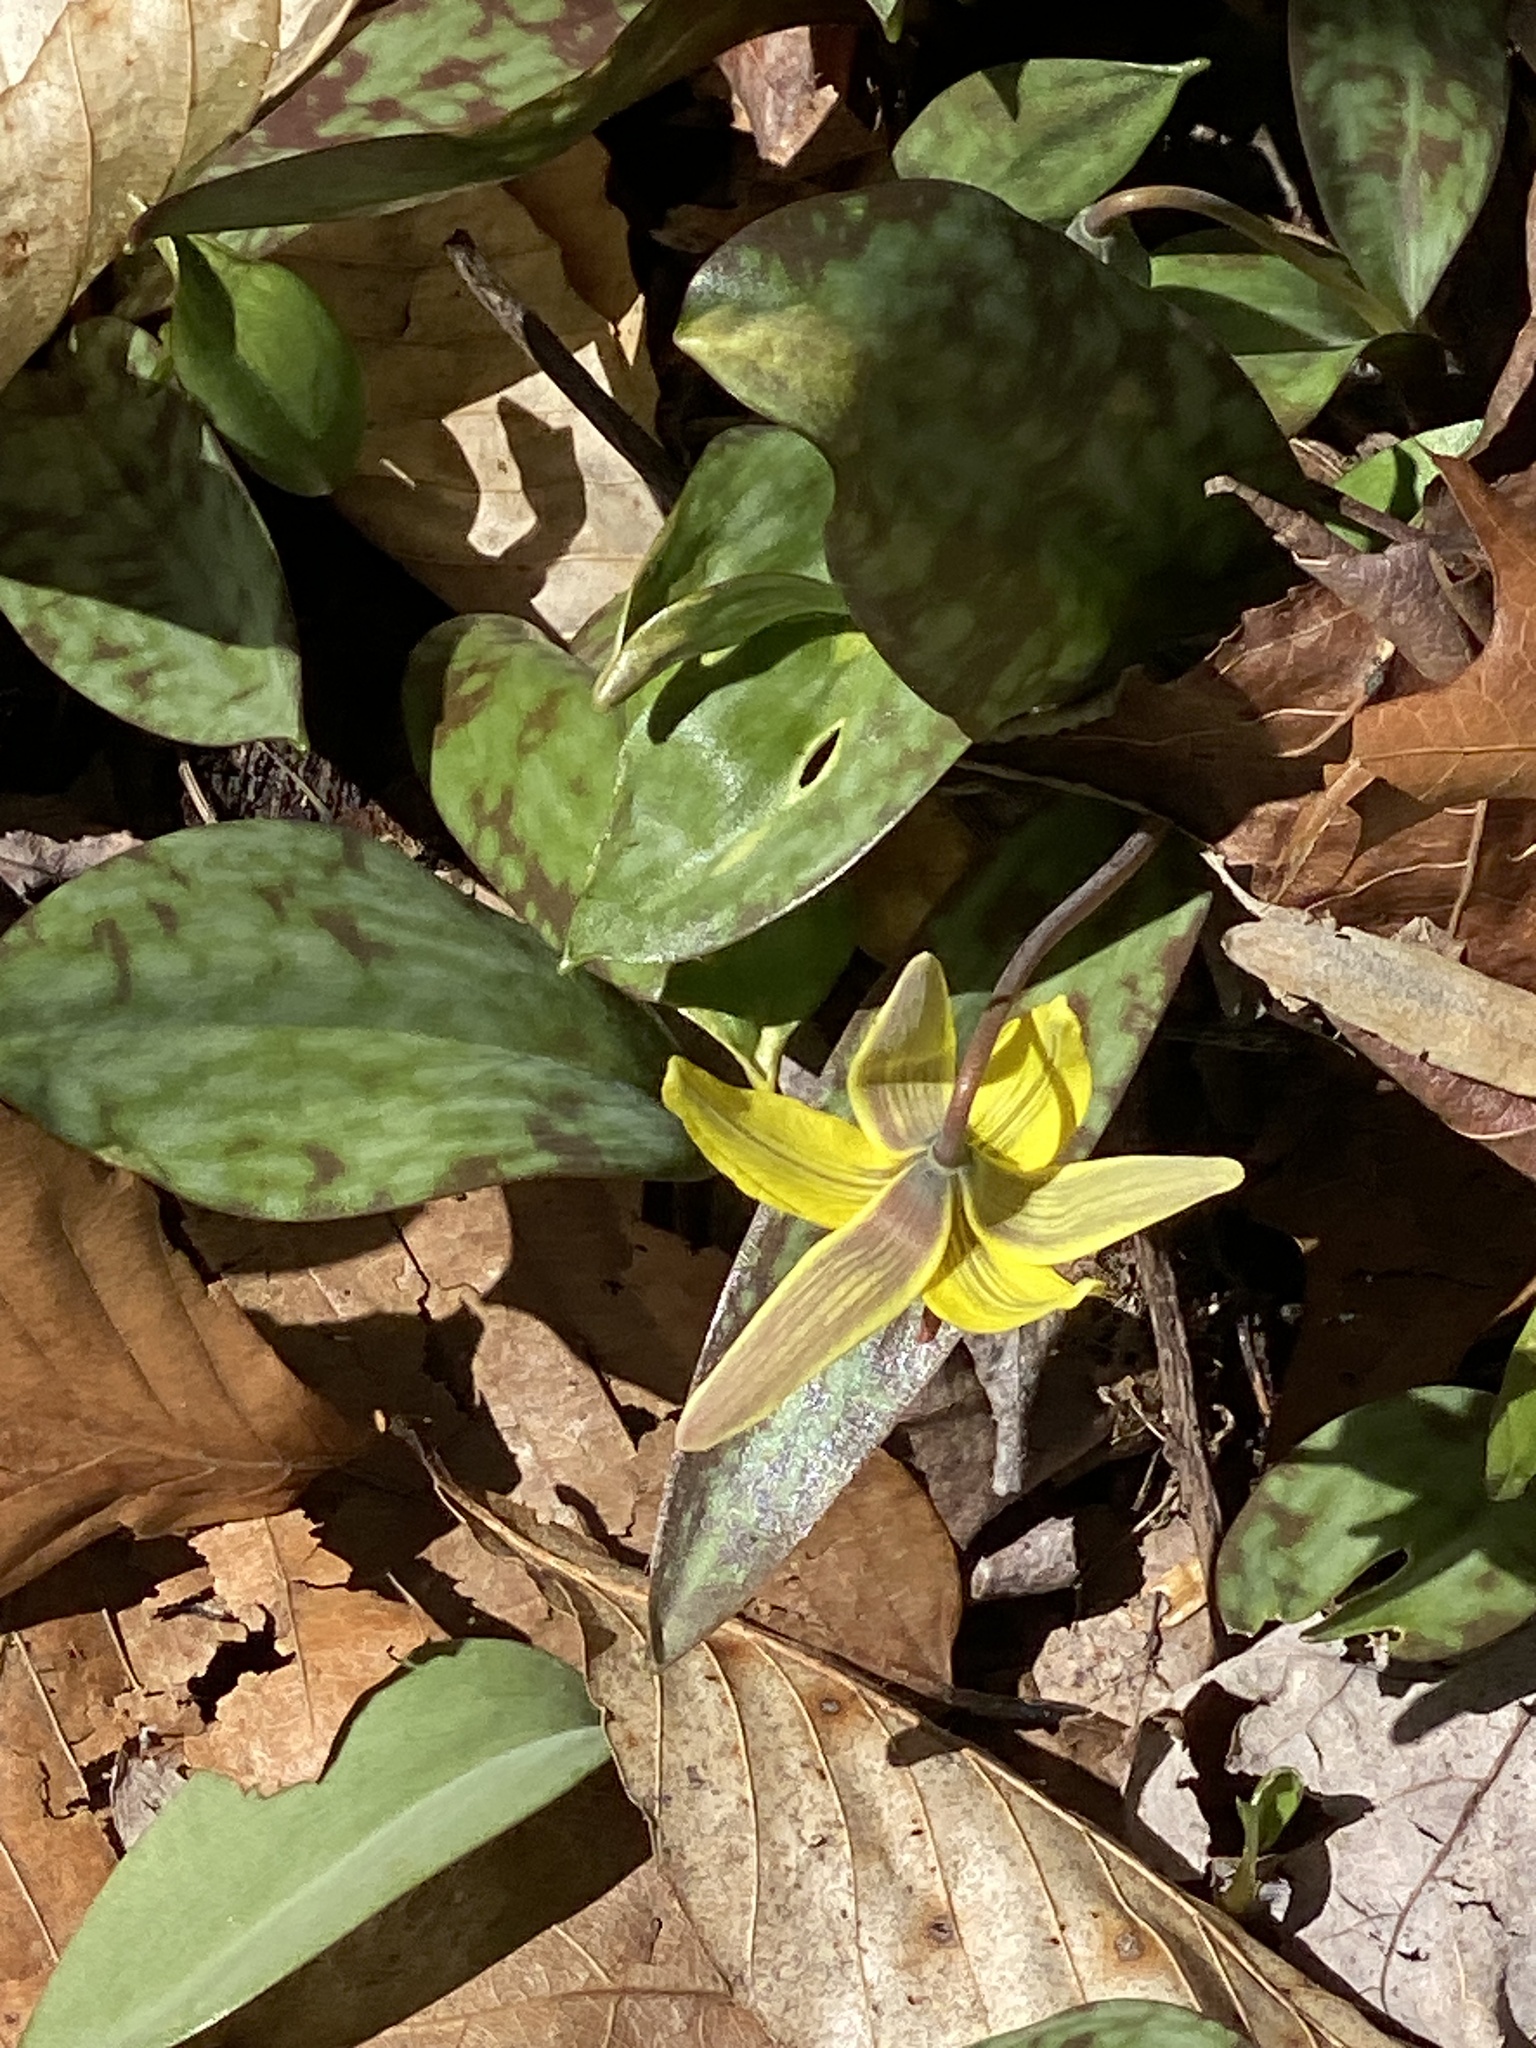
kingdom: Plantae
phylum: Tracheophyta
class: Liliopsida
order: Liliales
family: Liliaceae
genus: Erythronium
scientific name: Erythronium americanum
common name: Yellow adder's-tongue
